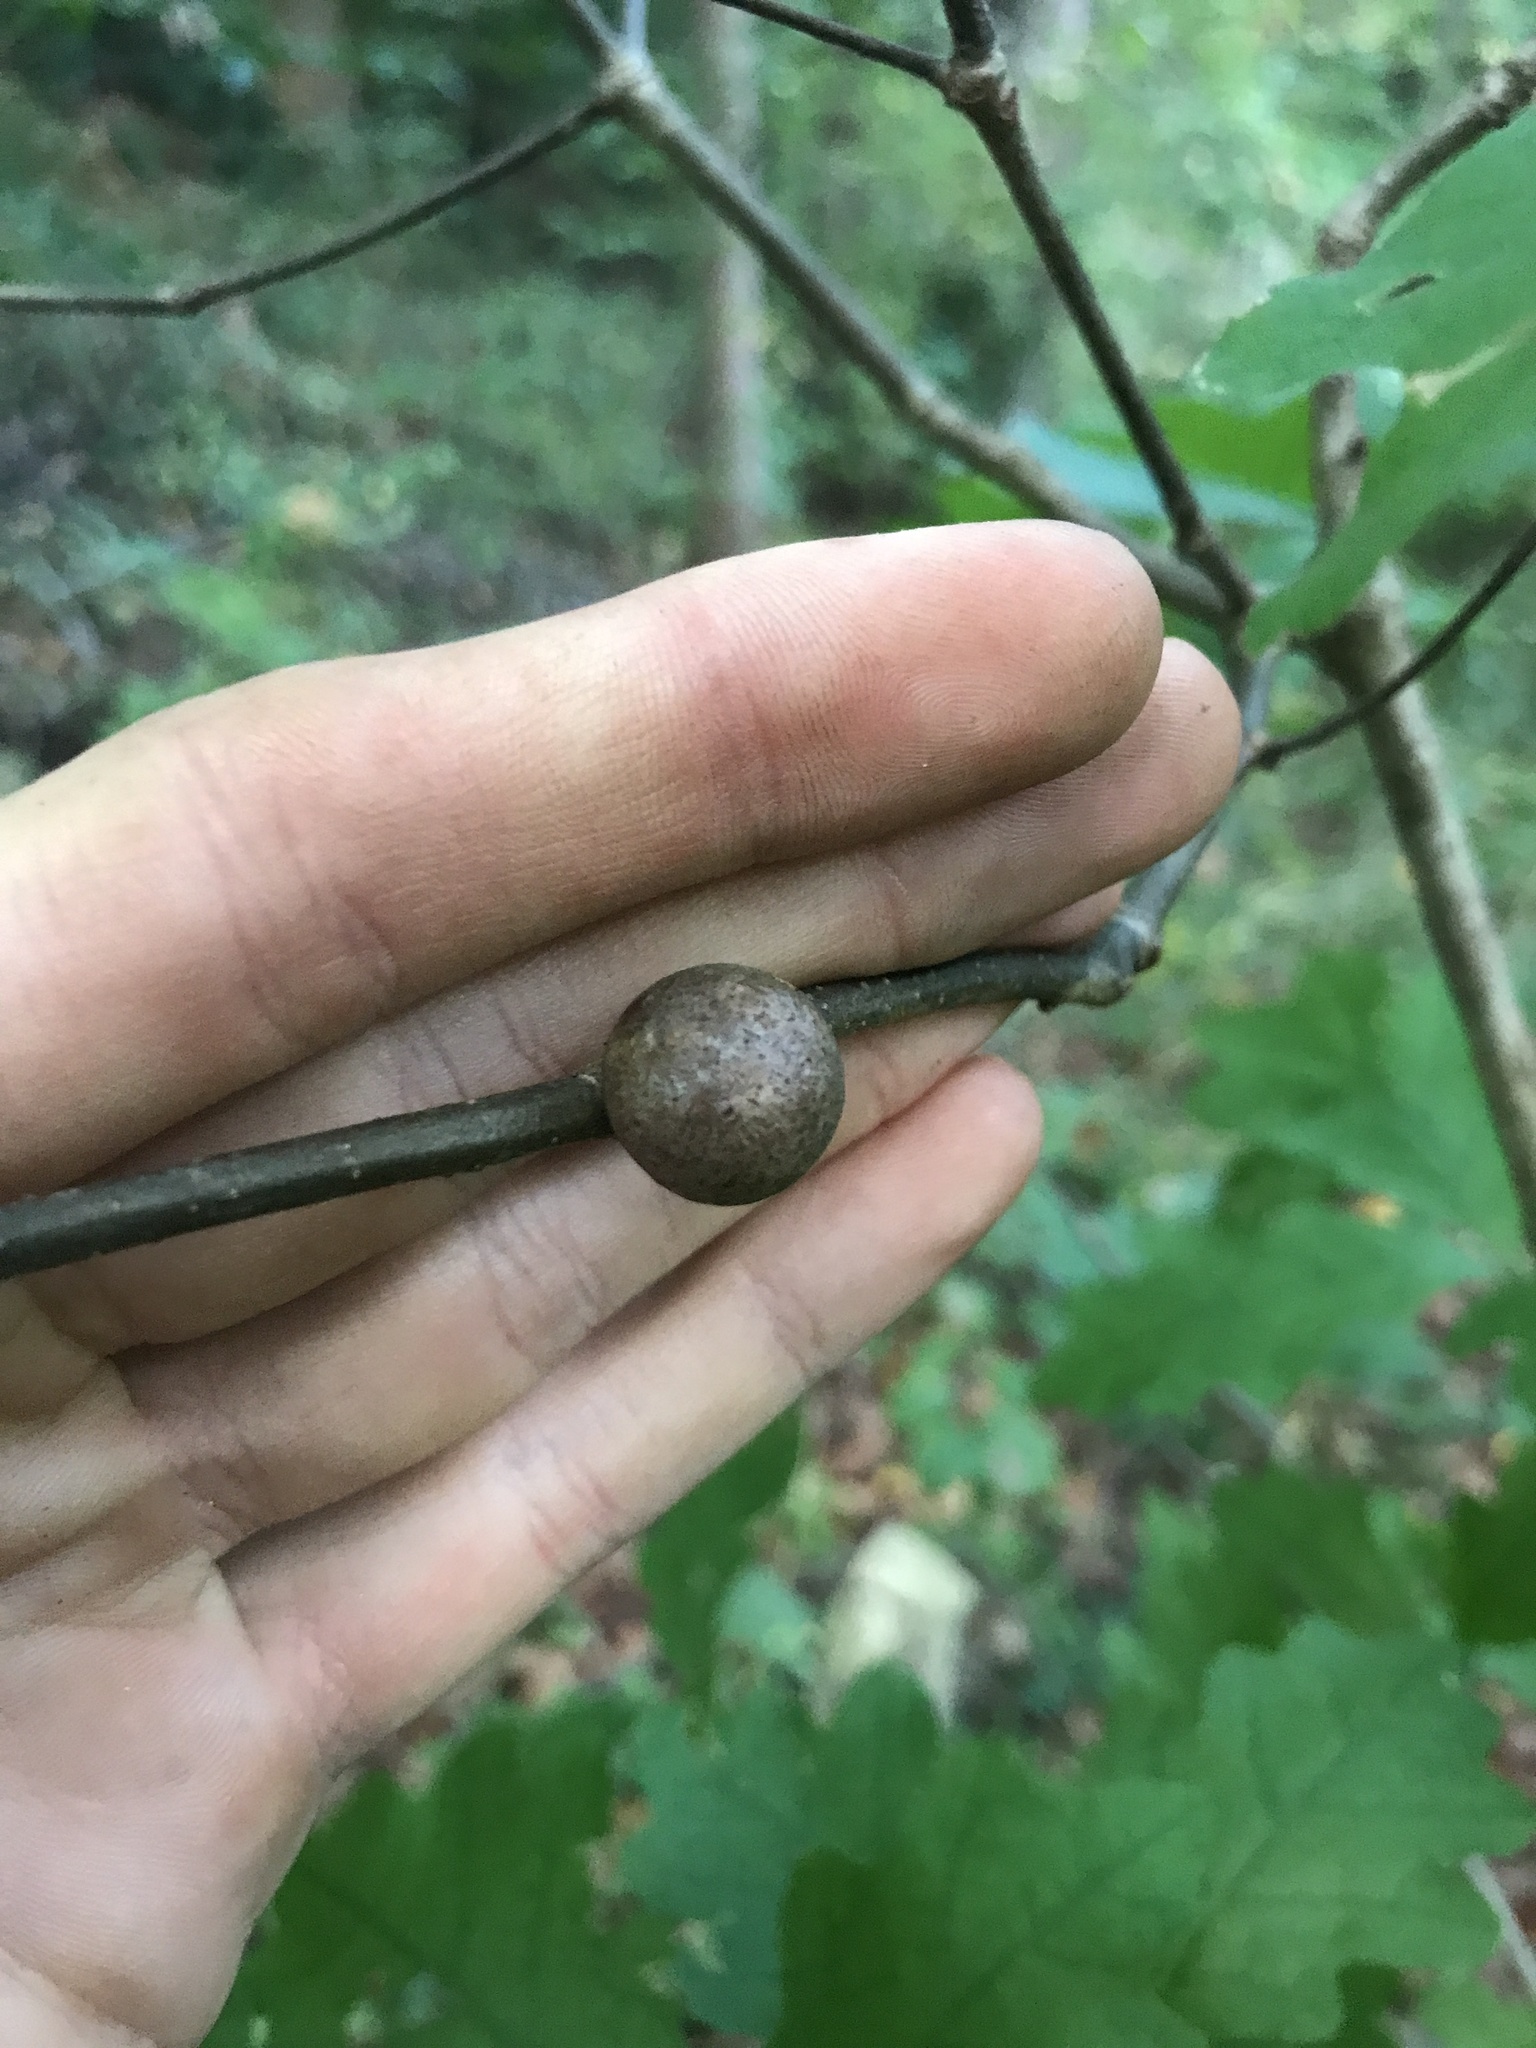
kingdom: Animalia
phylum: Arthropoda
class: Insecta
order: Hymenoptera
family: Cynipidae
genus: Disholcaspis
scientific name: Disholcaspis quercusglobulus
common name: Round bullet gall wasp
